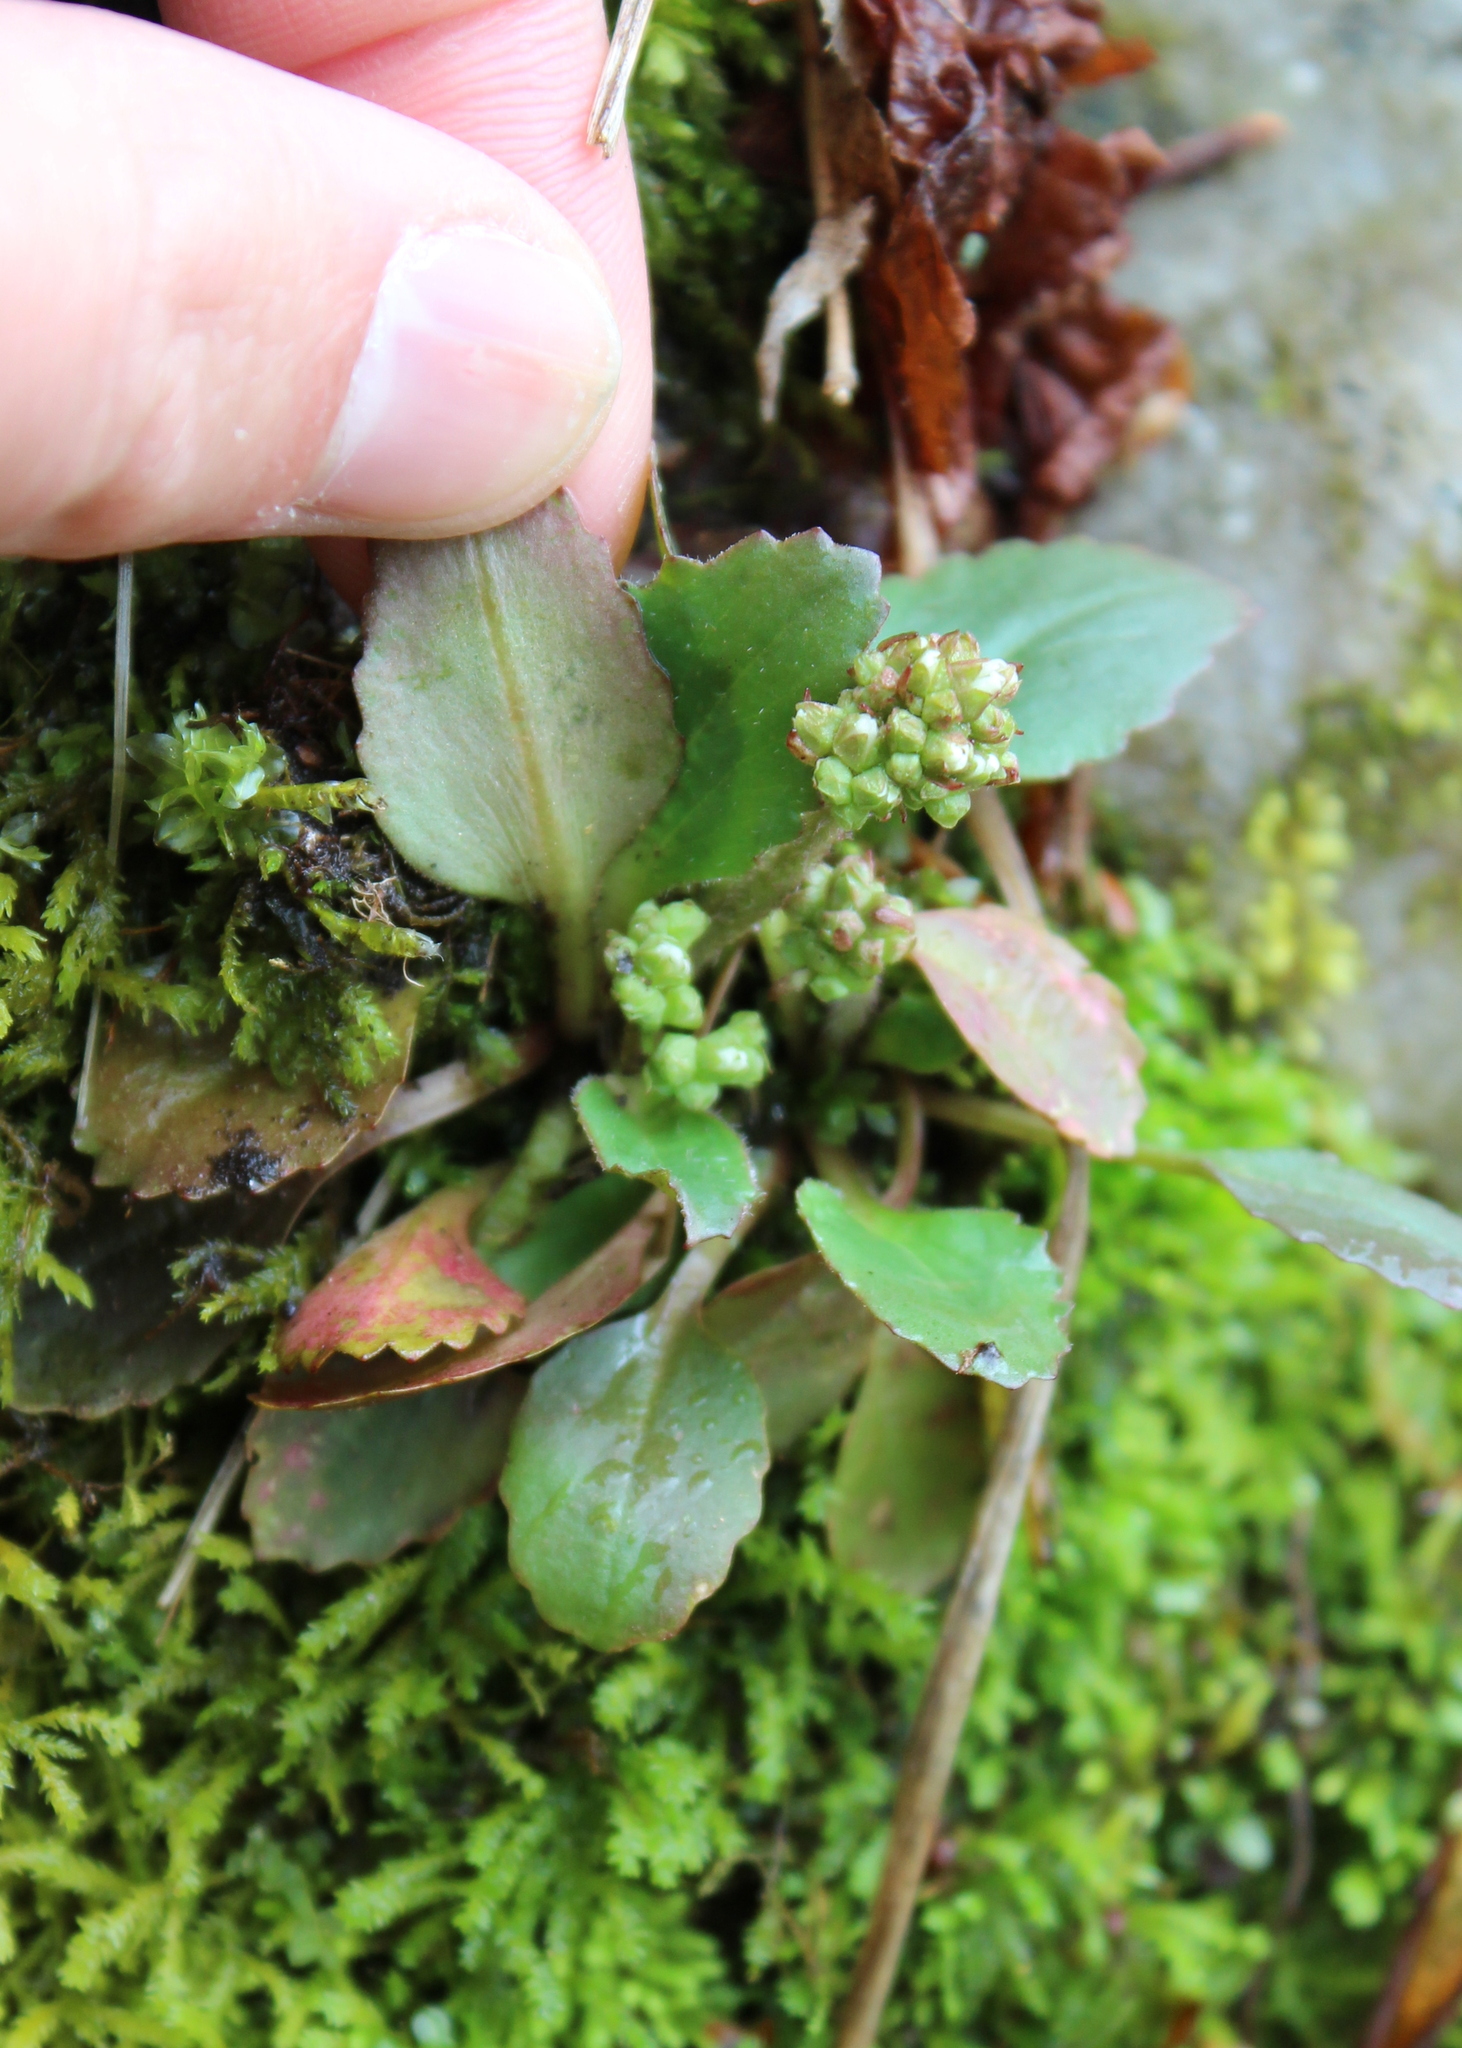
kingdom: Plantae
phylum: Tracheophyta
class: Magnoliopsida
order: Saxifragales
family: Saxifragaceae
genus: Micranthes
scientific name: Micranthes virginiensis
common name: Early saxifrage
